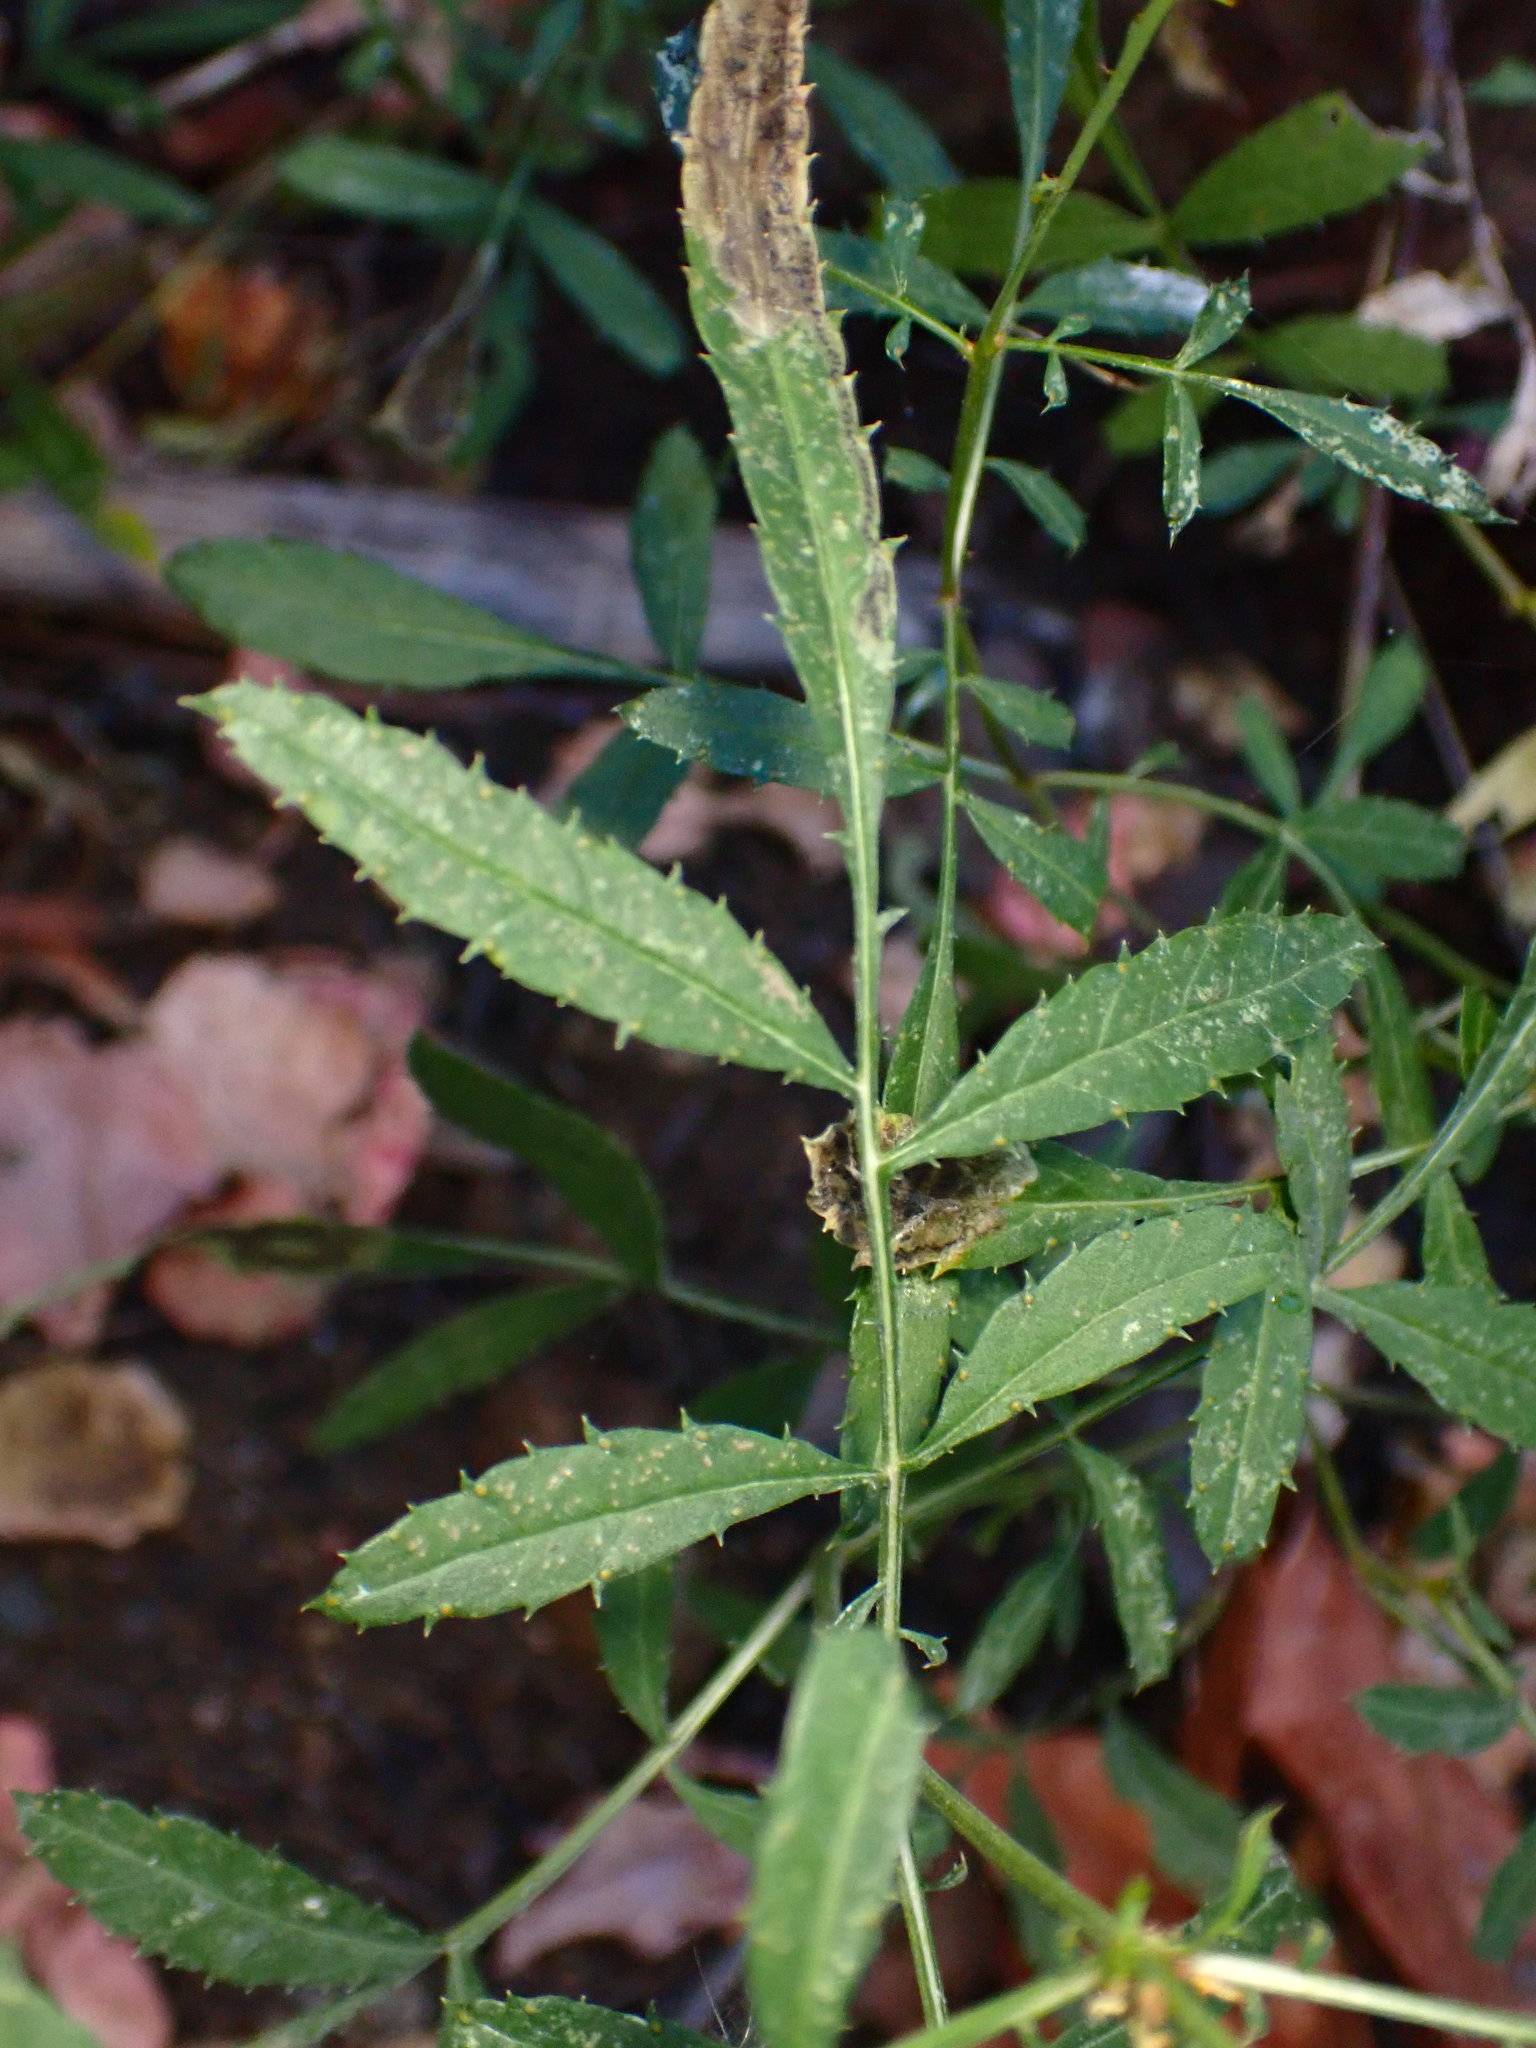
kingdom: Plantae
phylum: Tracheophyta
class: Magnoliopsida
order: Asterales
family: Asteraceae
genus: Tagetes
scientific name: Tagetes lemmonii
